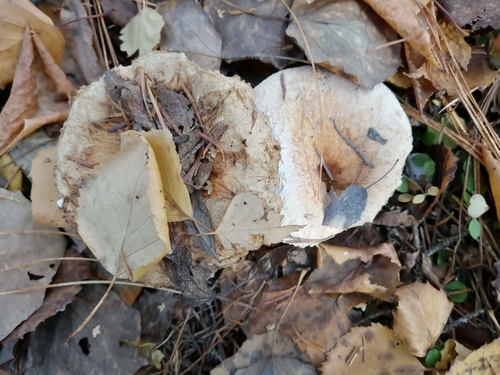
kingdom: Fungi
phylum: Basidiomycota
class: Agaricomycetes
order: Russulales
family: Russulaceae
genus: Lactarius
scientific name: Lactarius torminosus
